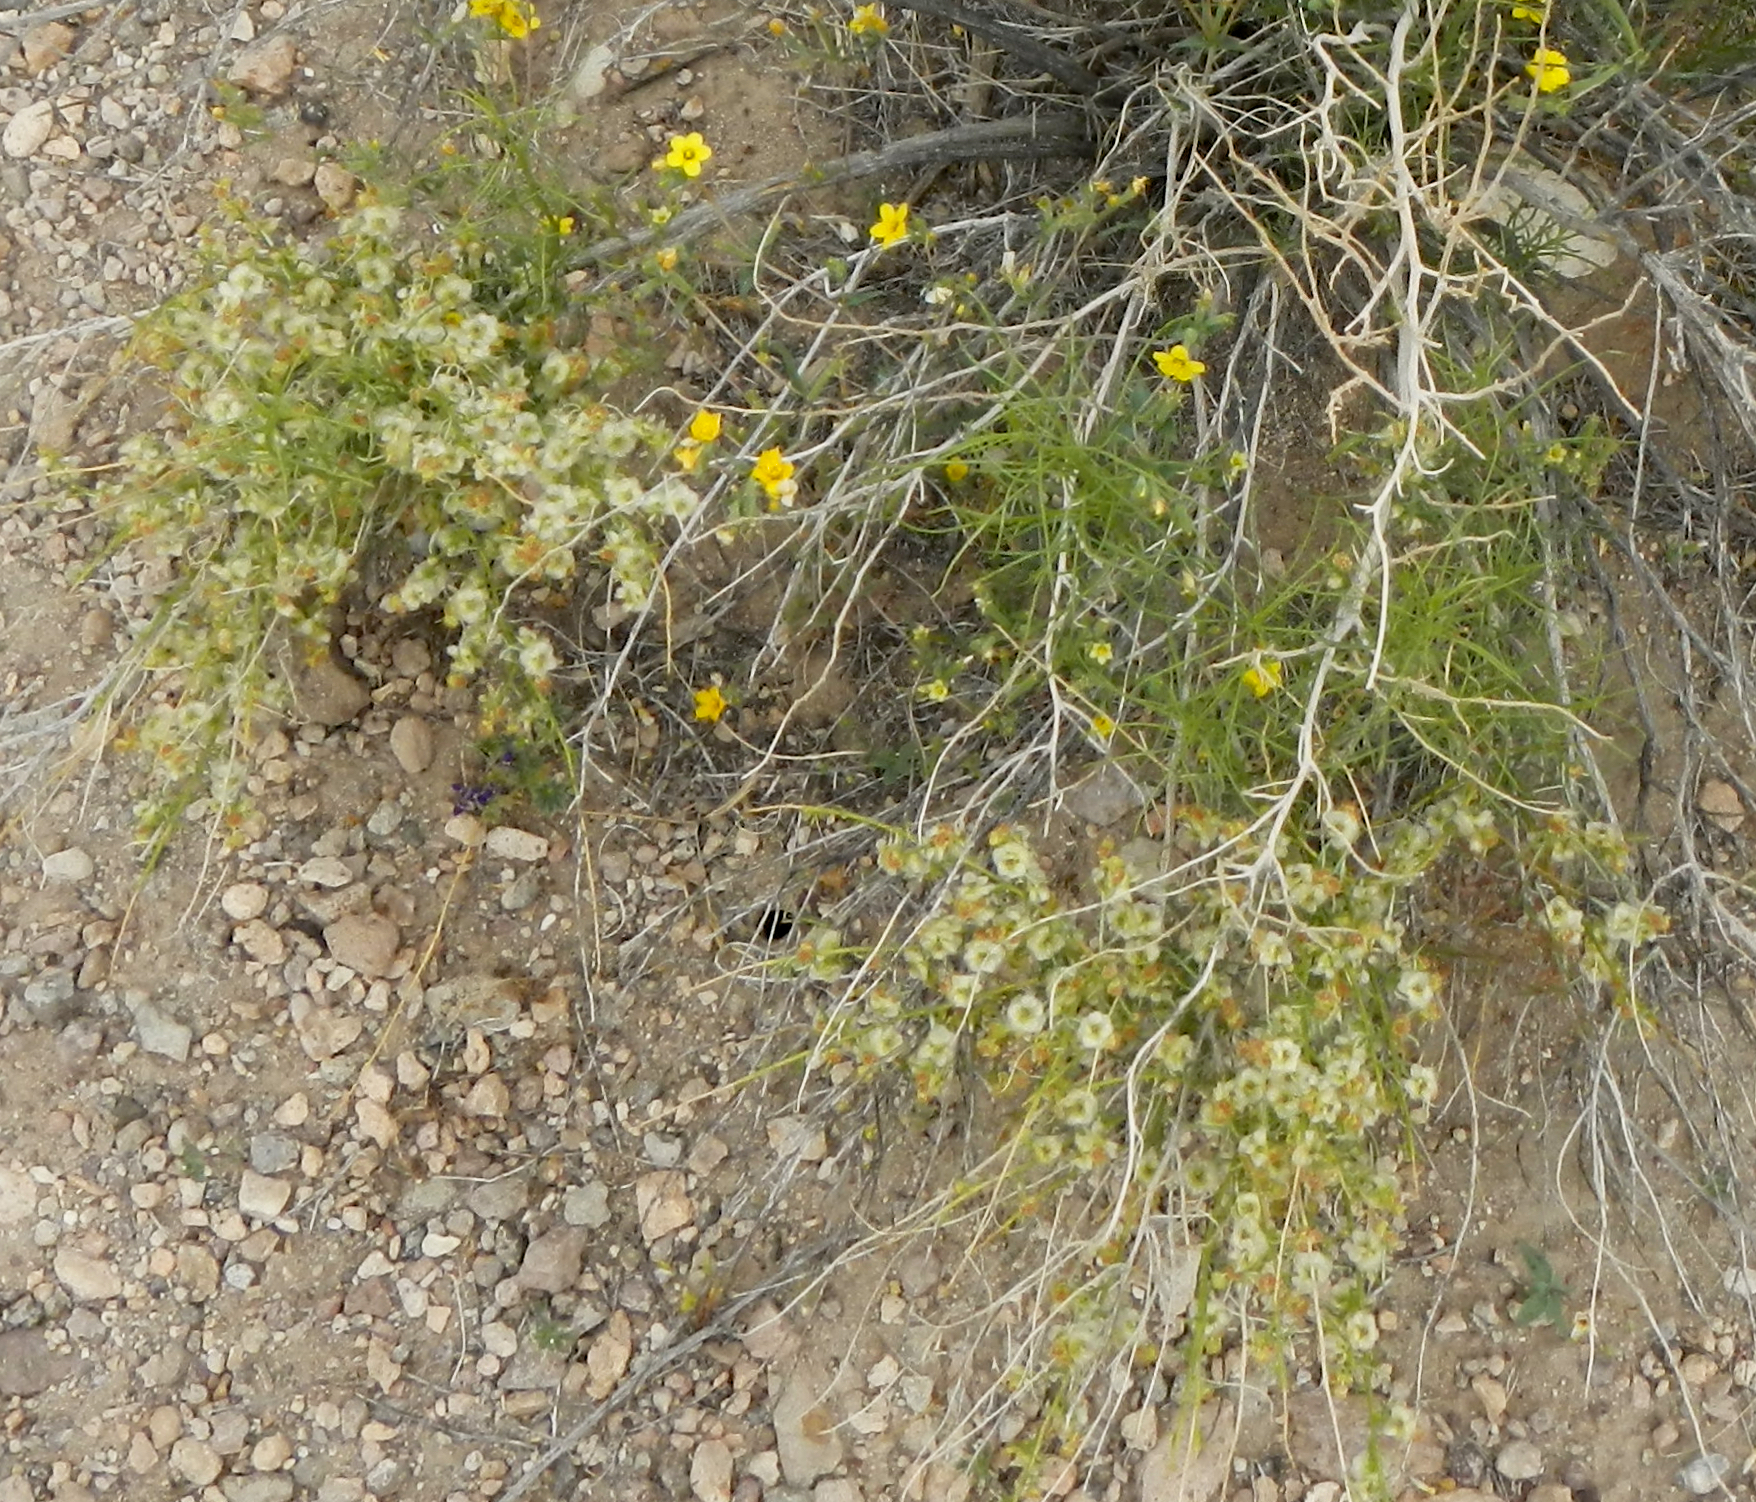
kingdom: Plantae
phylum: Tracheophyta
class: Magnoliopsida
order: Asterales
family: Asteraceae
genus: Ambrosia
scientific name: Ambrosia salsola
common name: Burrobrush
